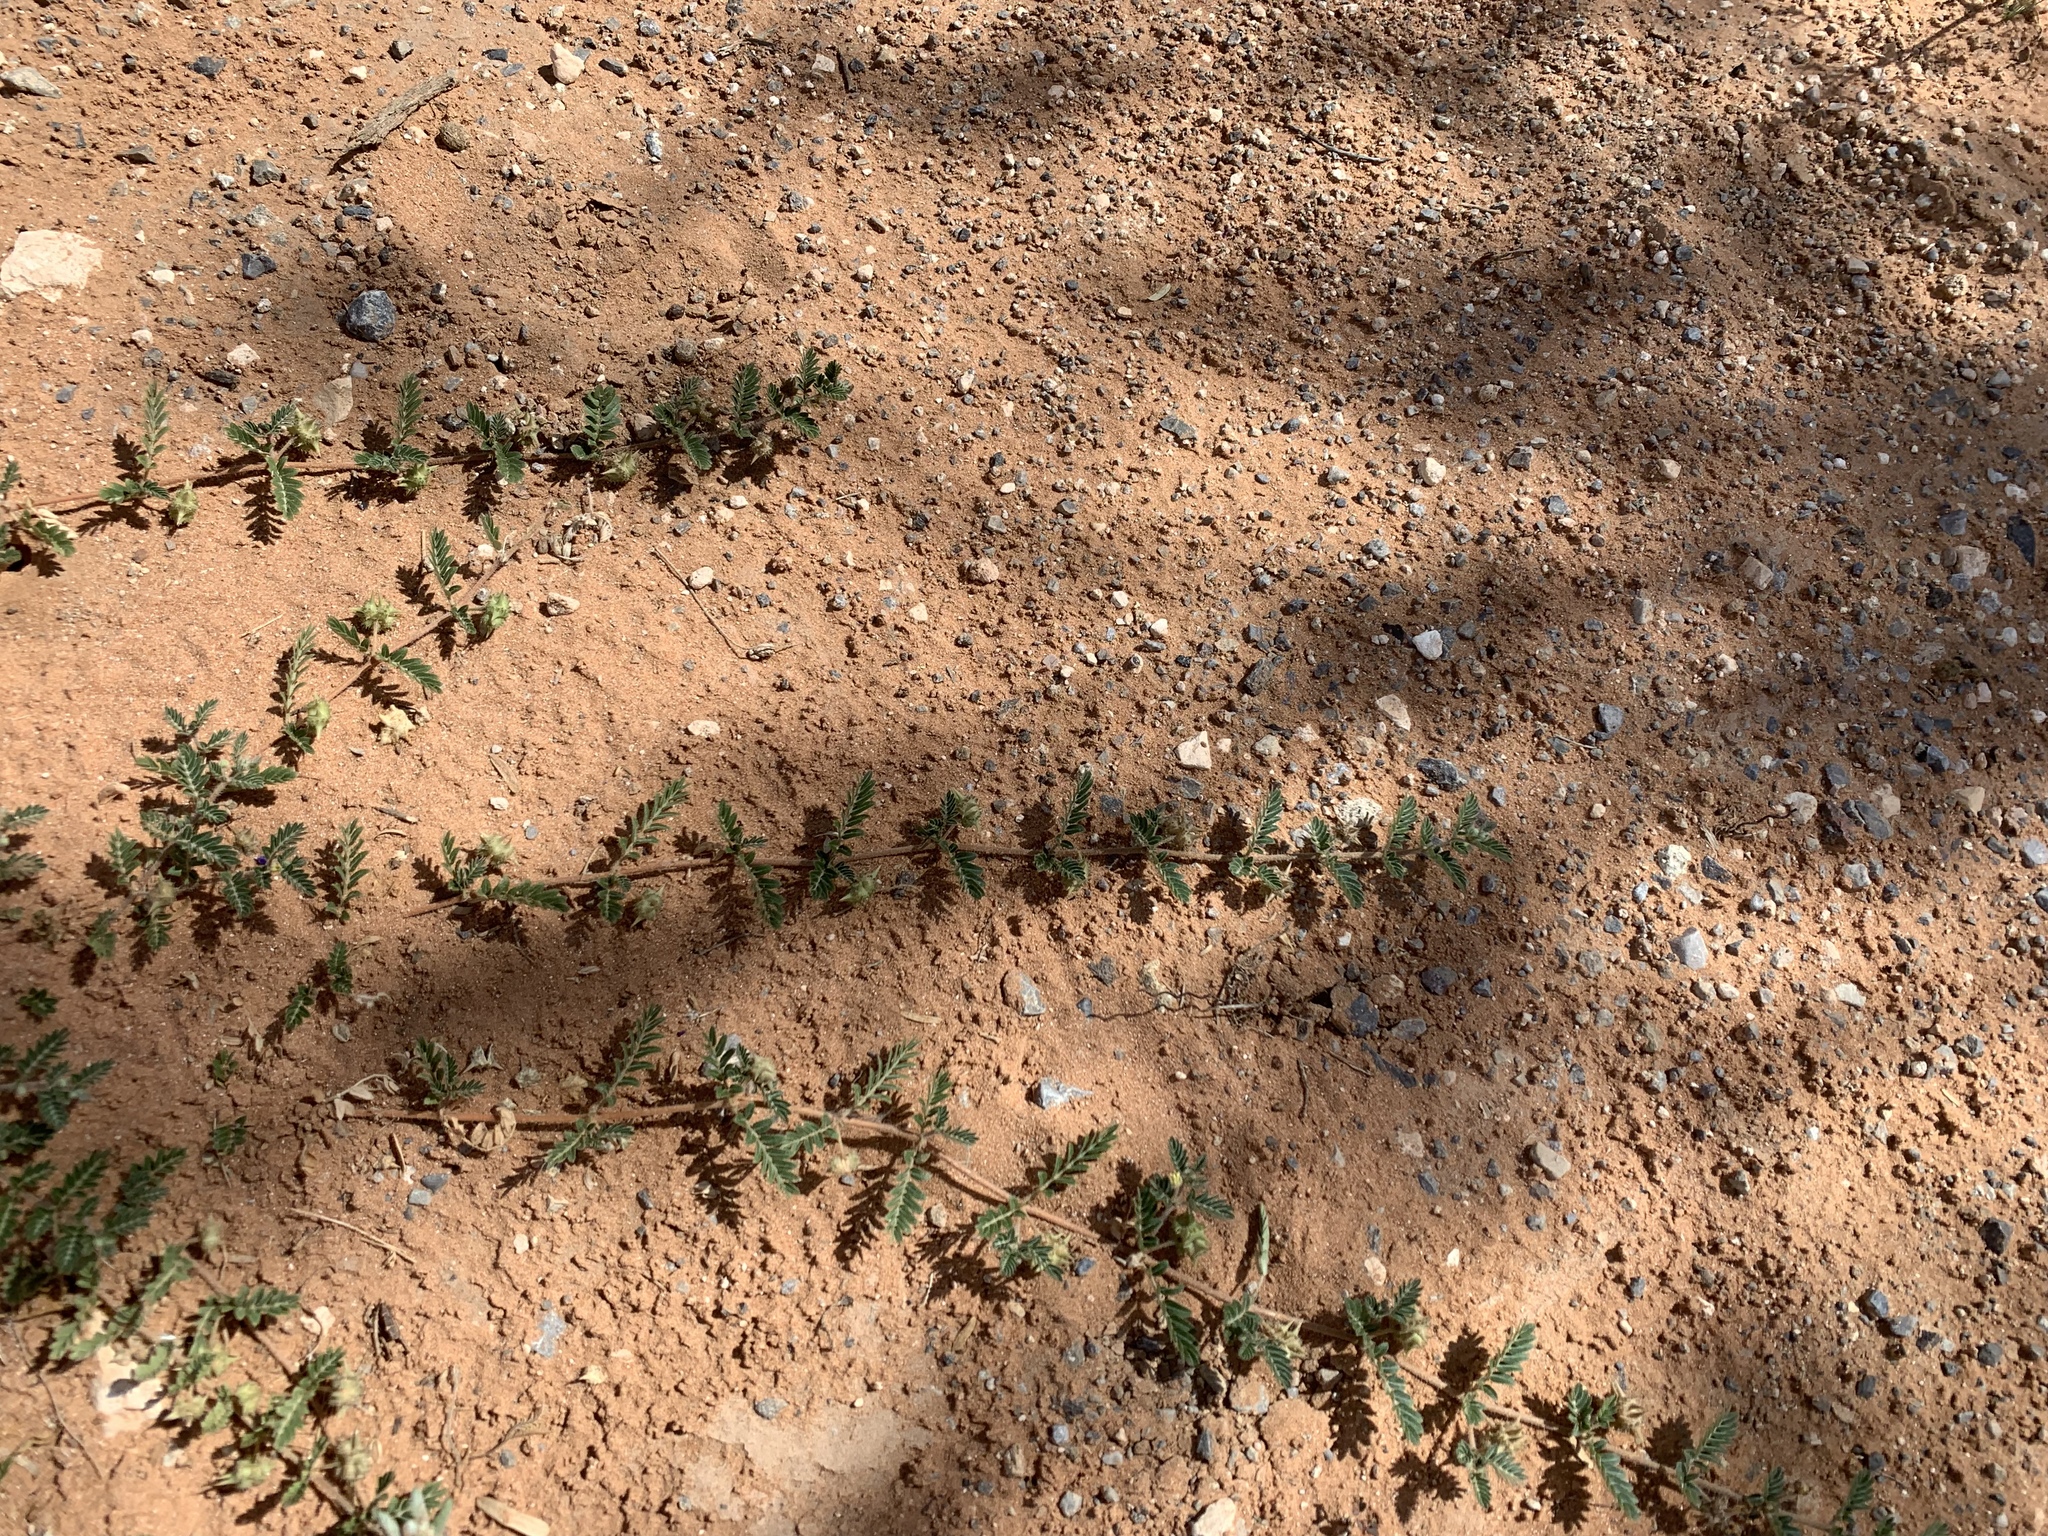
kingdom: Plantae
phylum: Tracheophyta
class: Magnoliopsida
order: Zygophyllales
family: Zygophyllaceae
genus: Tribulus
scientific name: Tribulus terrestris
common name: Puncturevine
